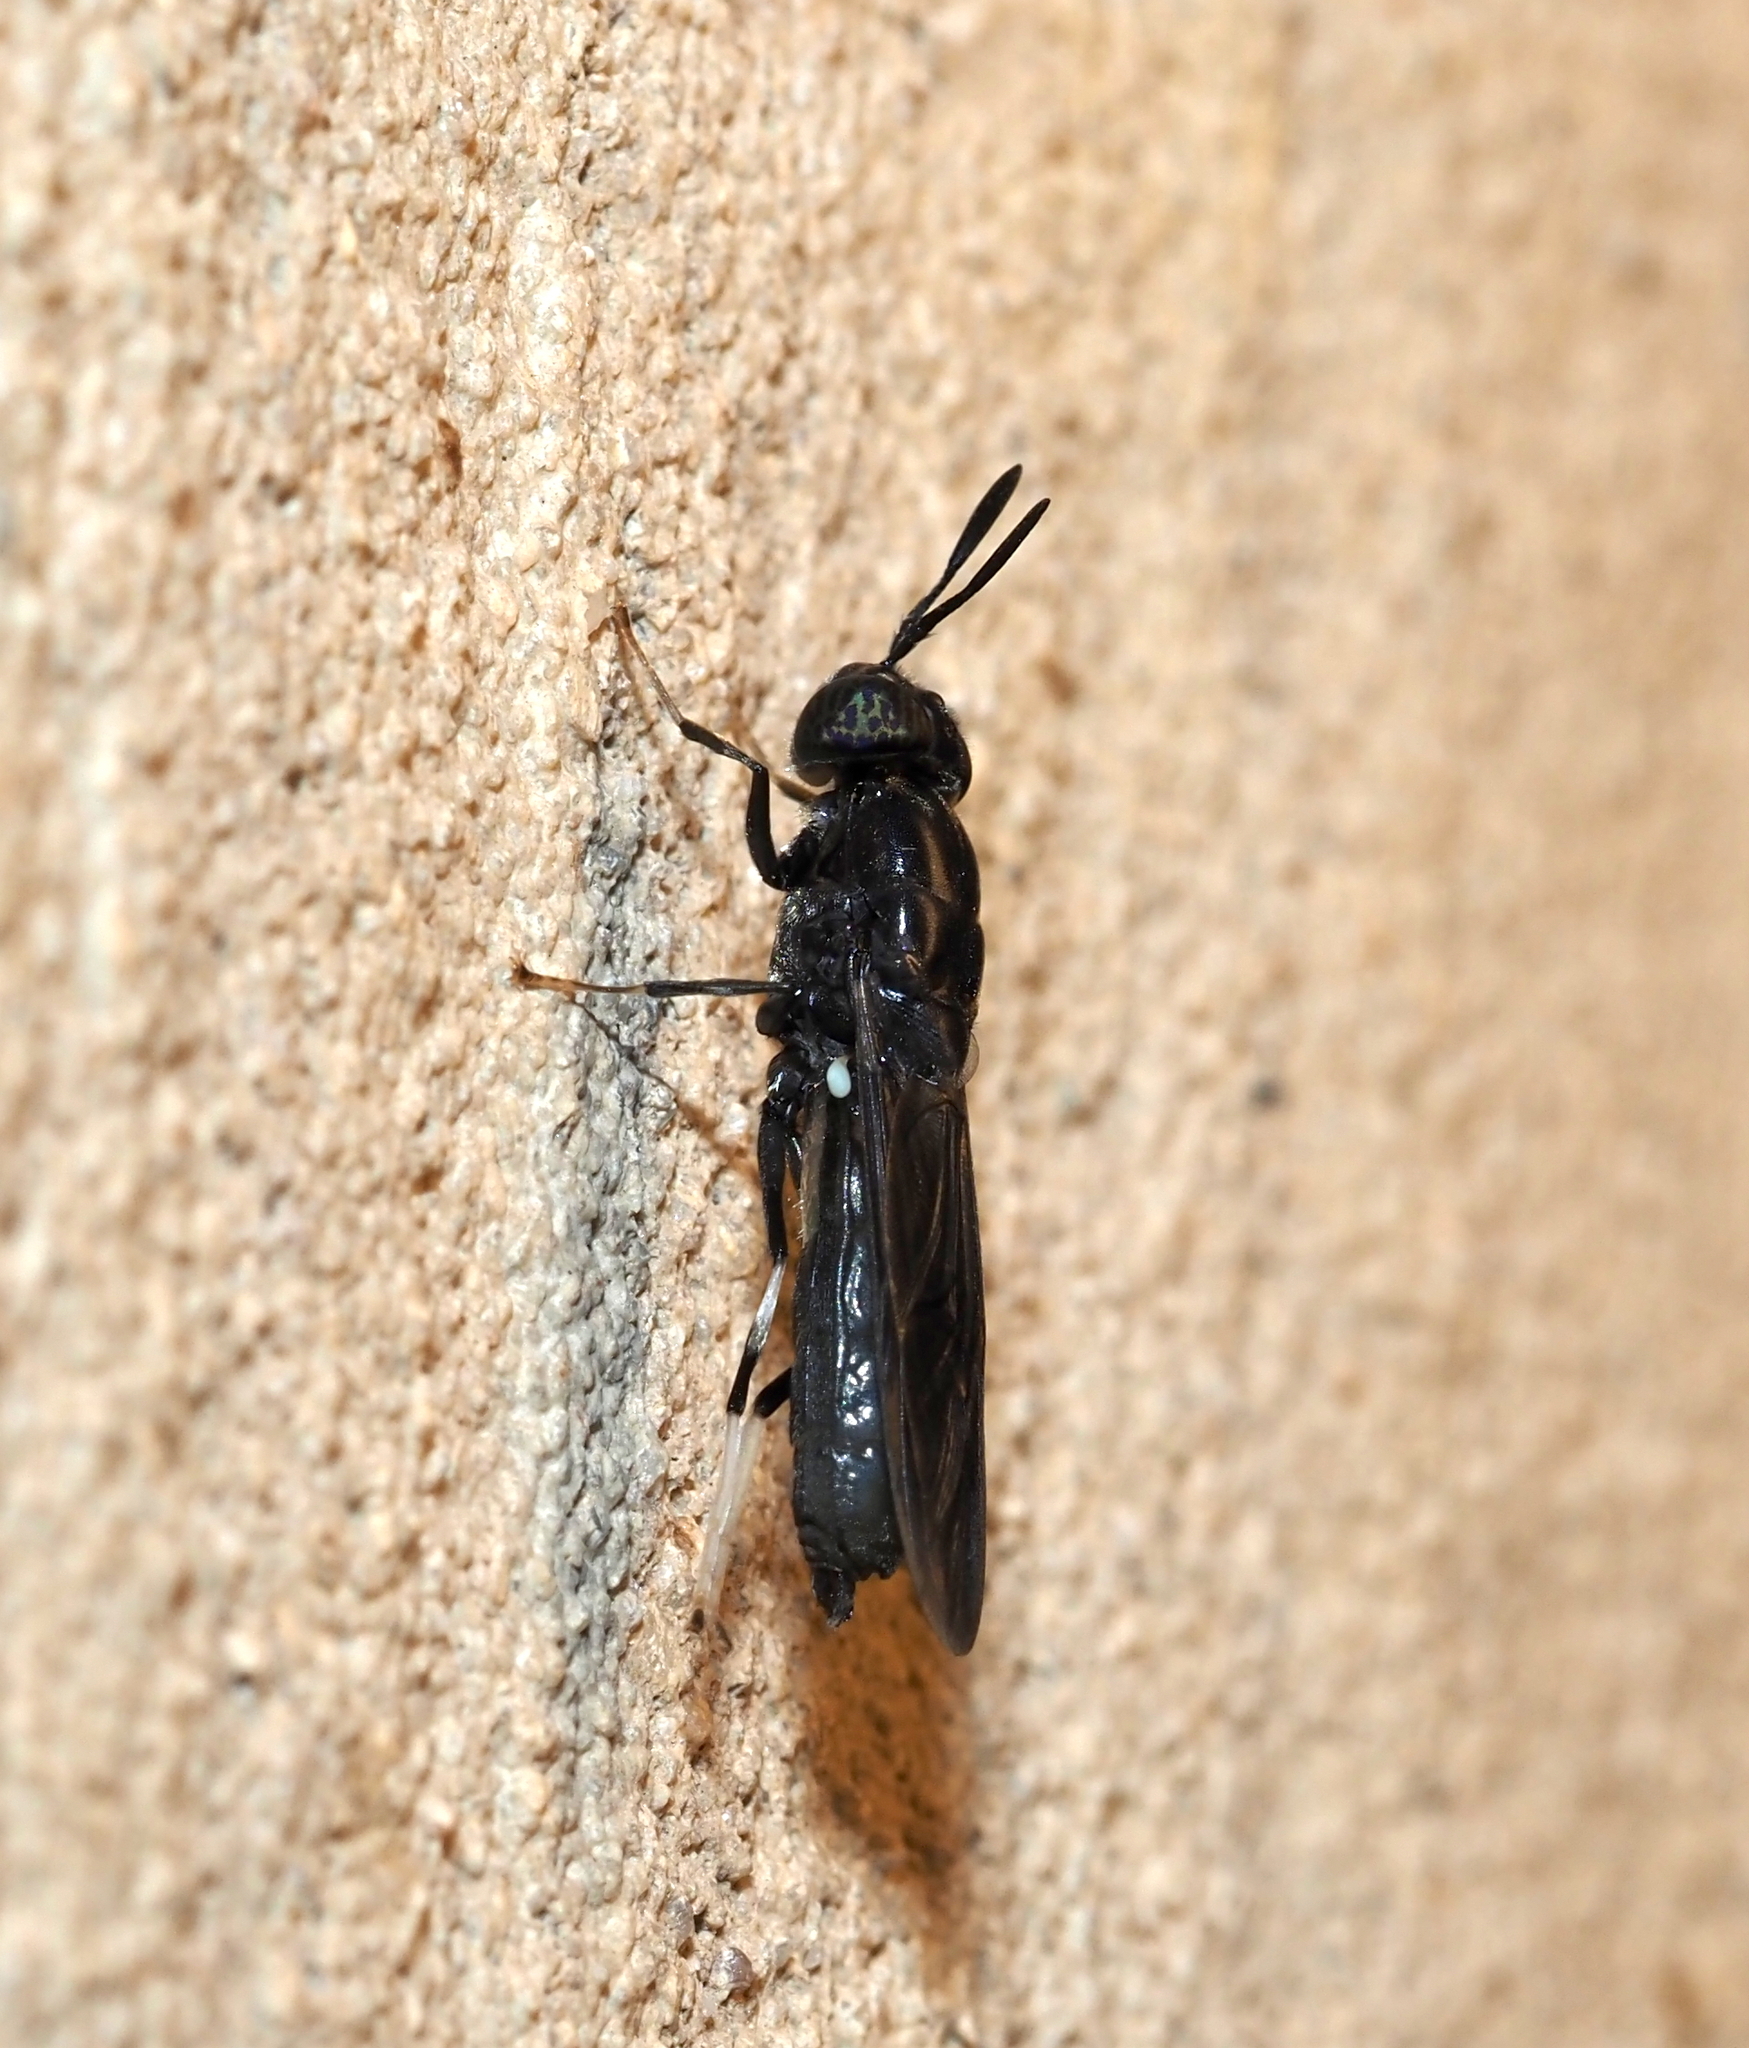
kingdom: Animalia
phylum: Arthropoda
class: Insecta
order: Diptera
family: Stratiomyidae
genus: Hermetia
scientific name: Hermetia illucens
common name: Black soldier fly
